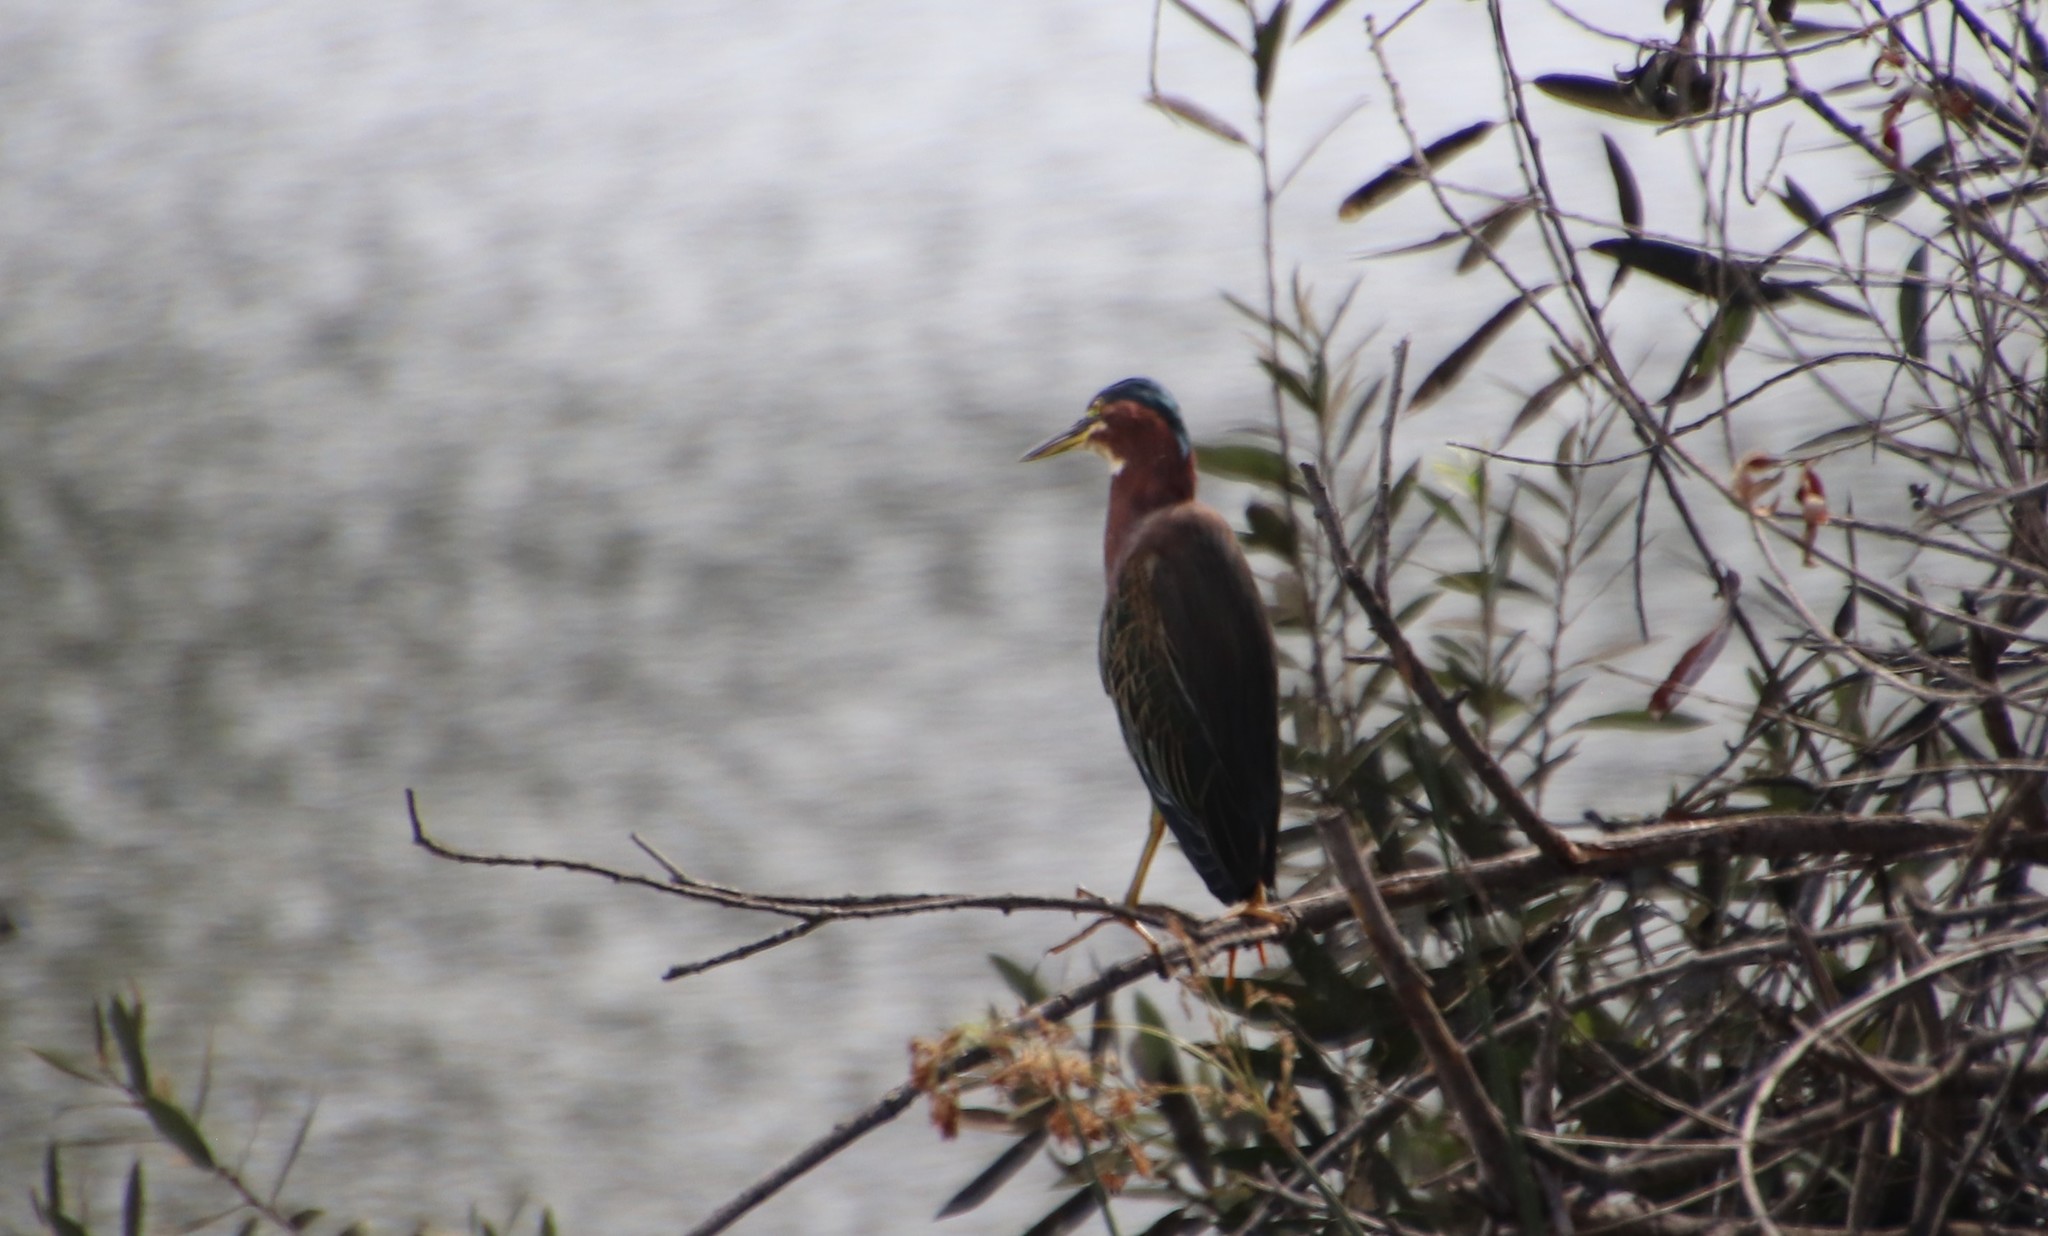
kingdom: Animalia
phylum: Chordata
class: Aves
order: Pelecaniformes
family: Ardeidae
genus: Butorides
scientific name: Butorides virescens
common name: Green heron
